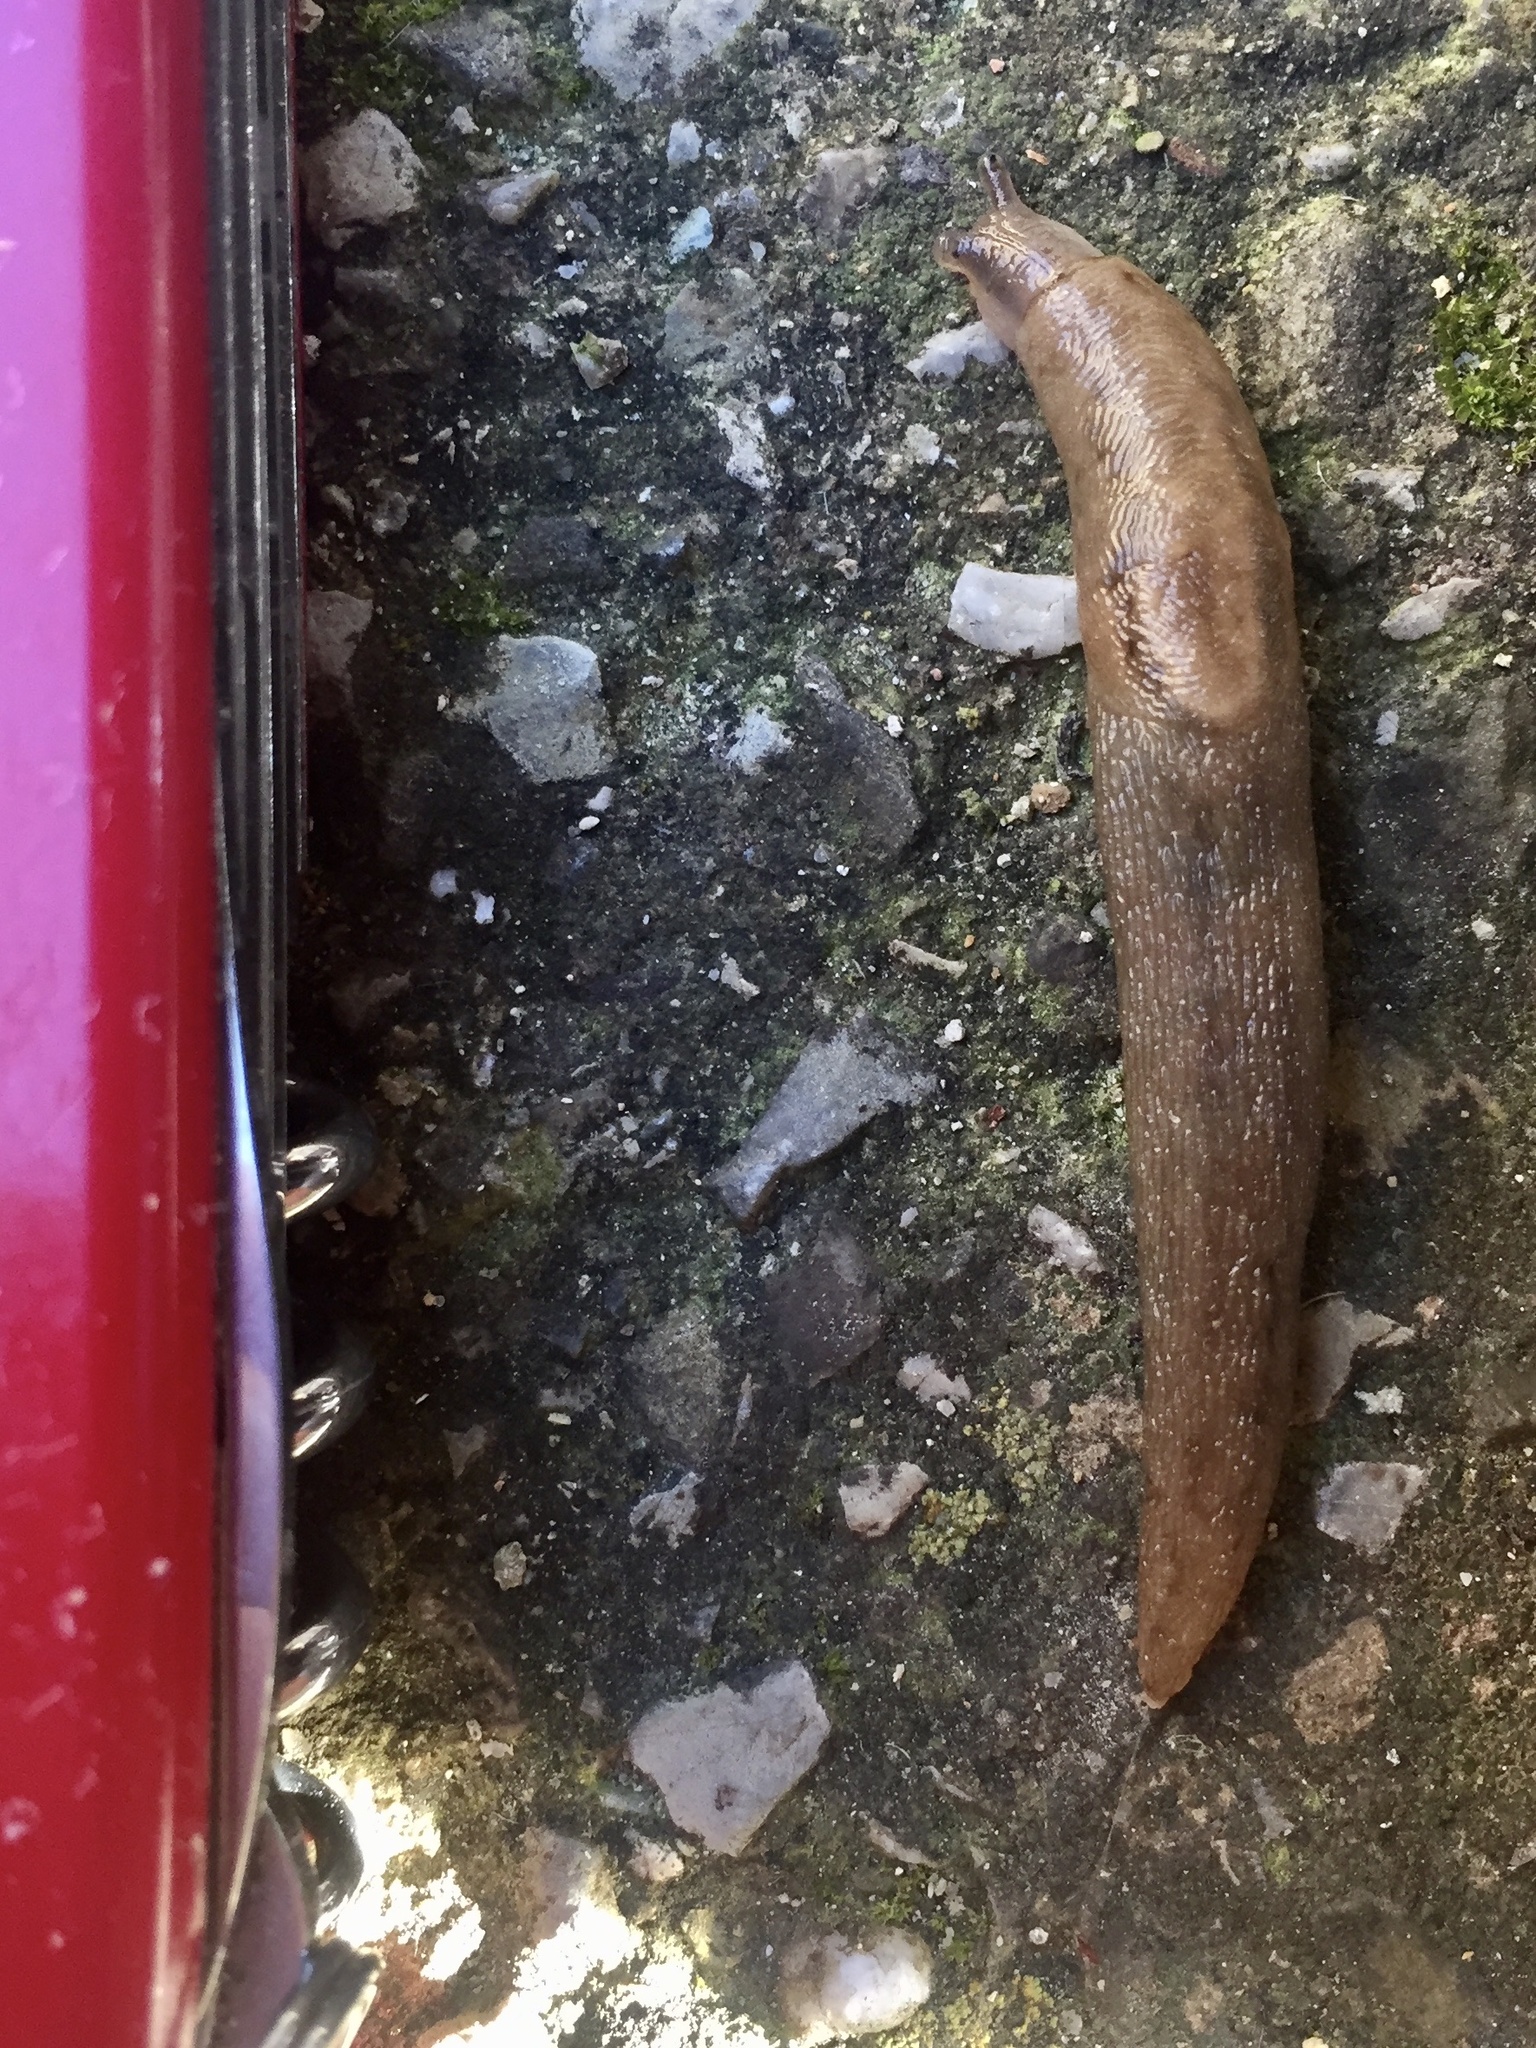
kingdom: Animalia
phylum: Mollusca
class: Gastropoda
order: Stylommatophora
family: Limacidae
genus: Ambigolimax
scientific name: Ambigolimax valentianus
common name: Greenhouse slug
